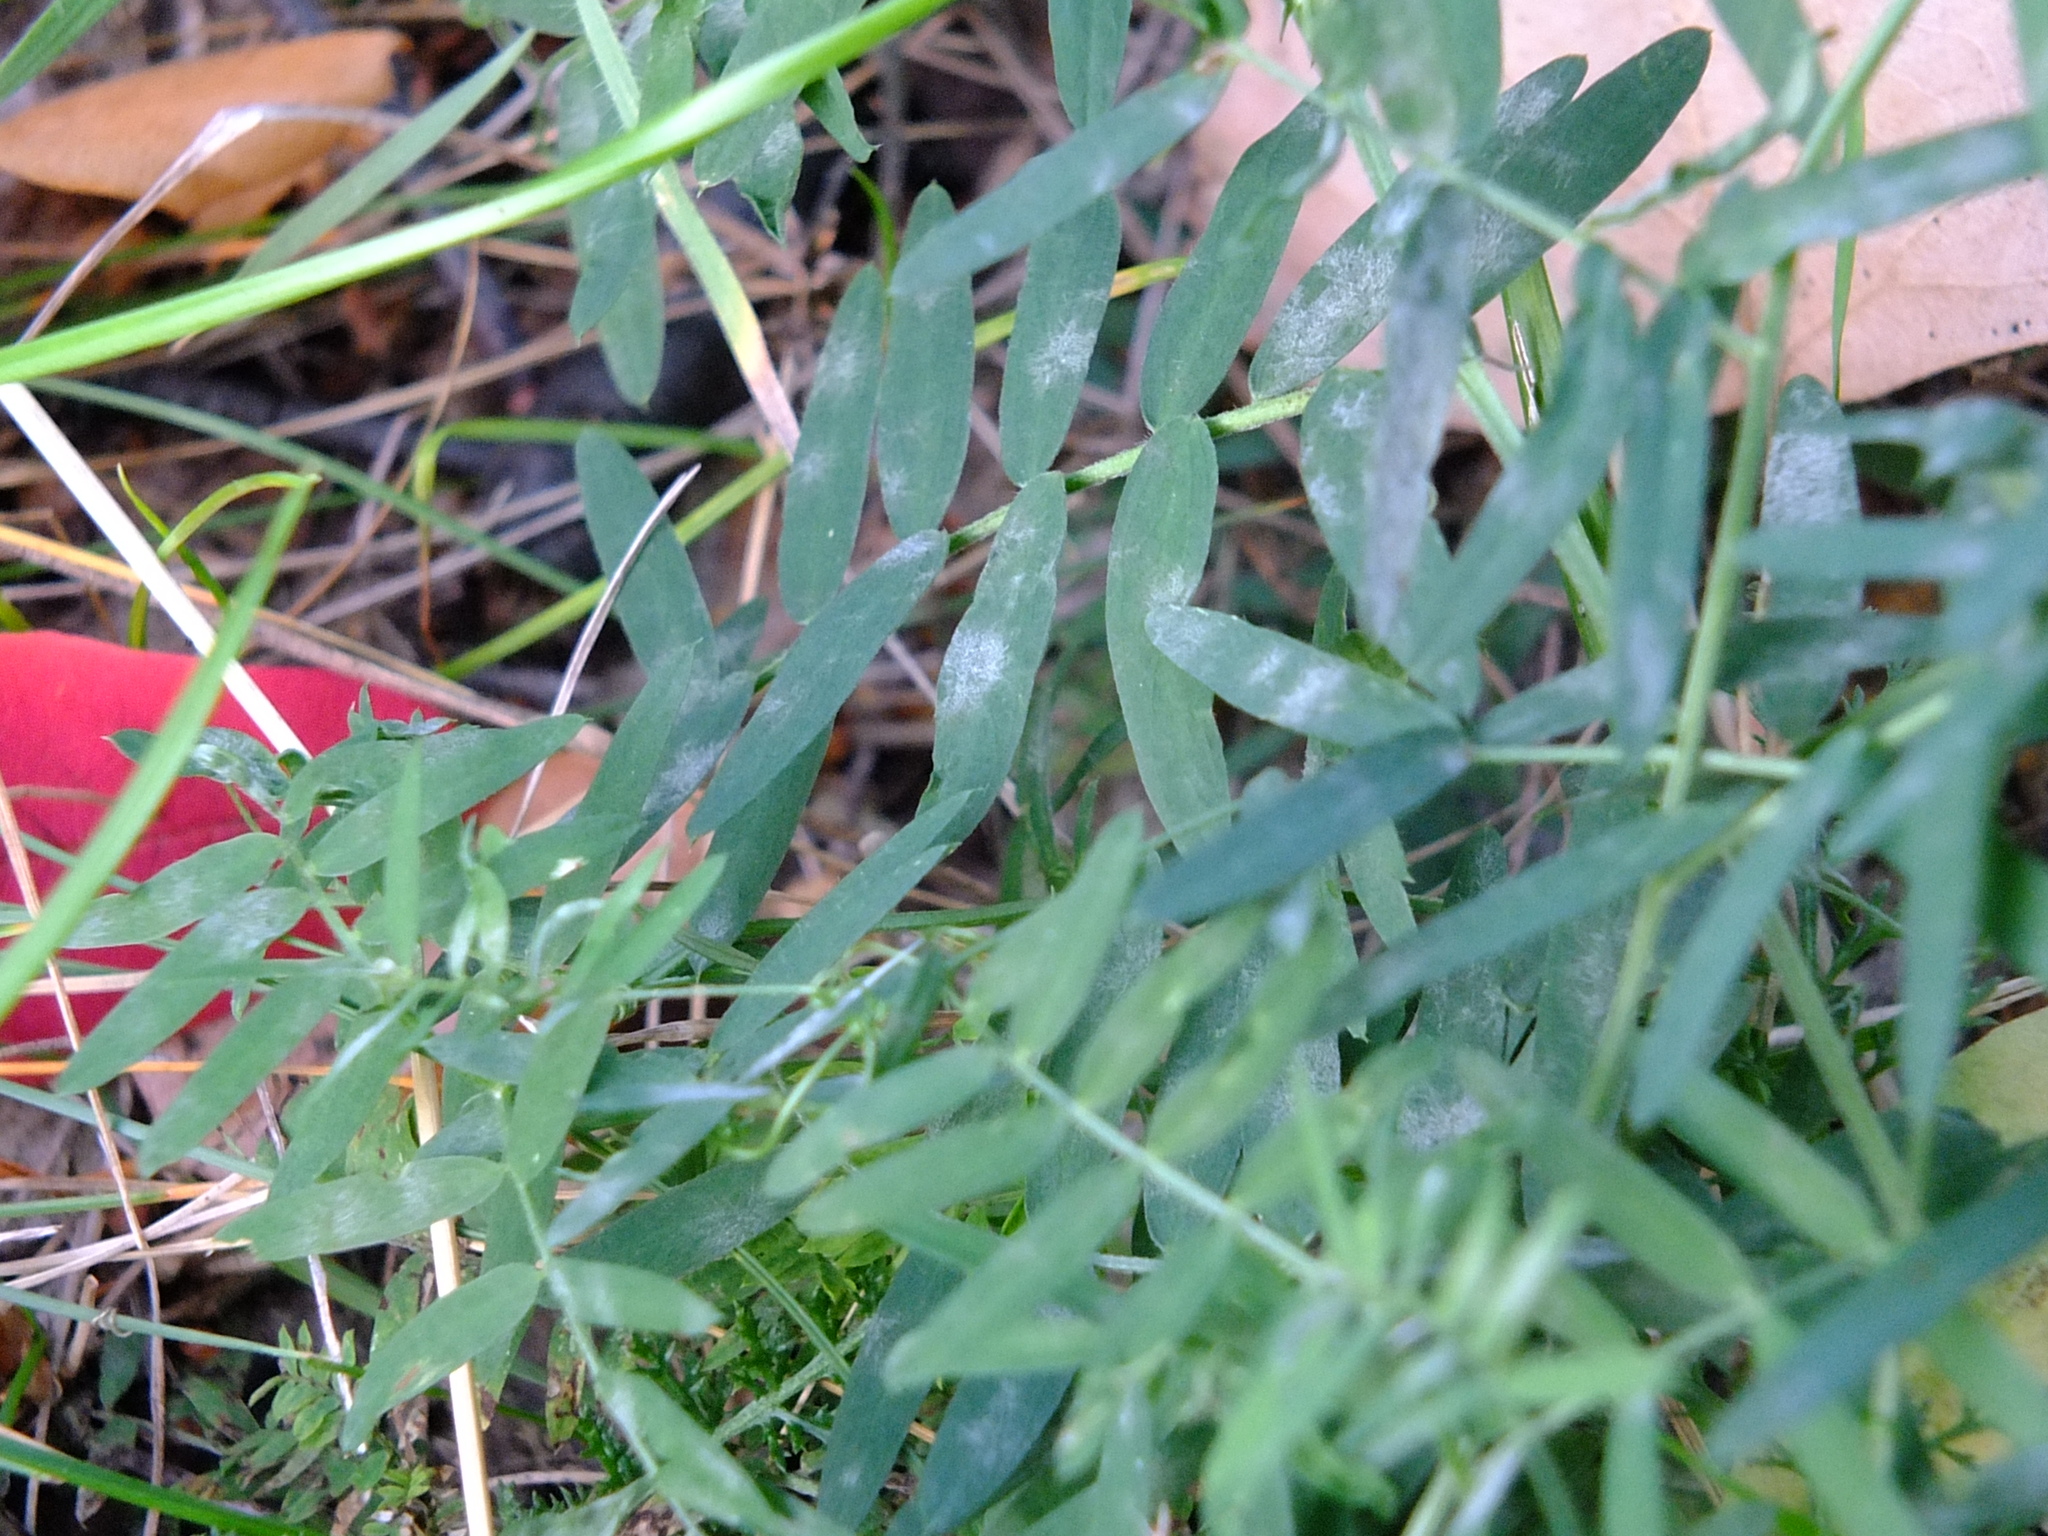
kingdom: Plantae
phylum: Tracheophyta
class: Magnoliopsida
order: Fabales
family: Fabaceae
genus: Vicia
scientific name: Vicia cracca
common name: Bird vetch
